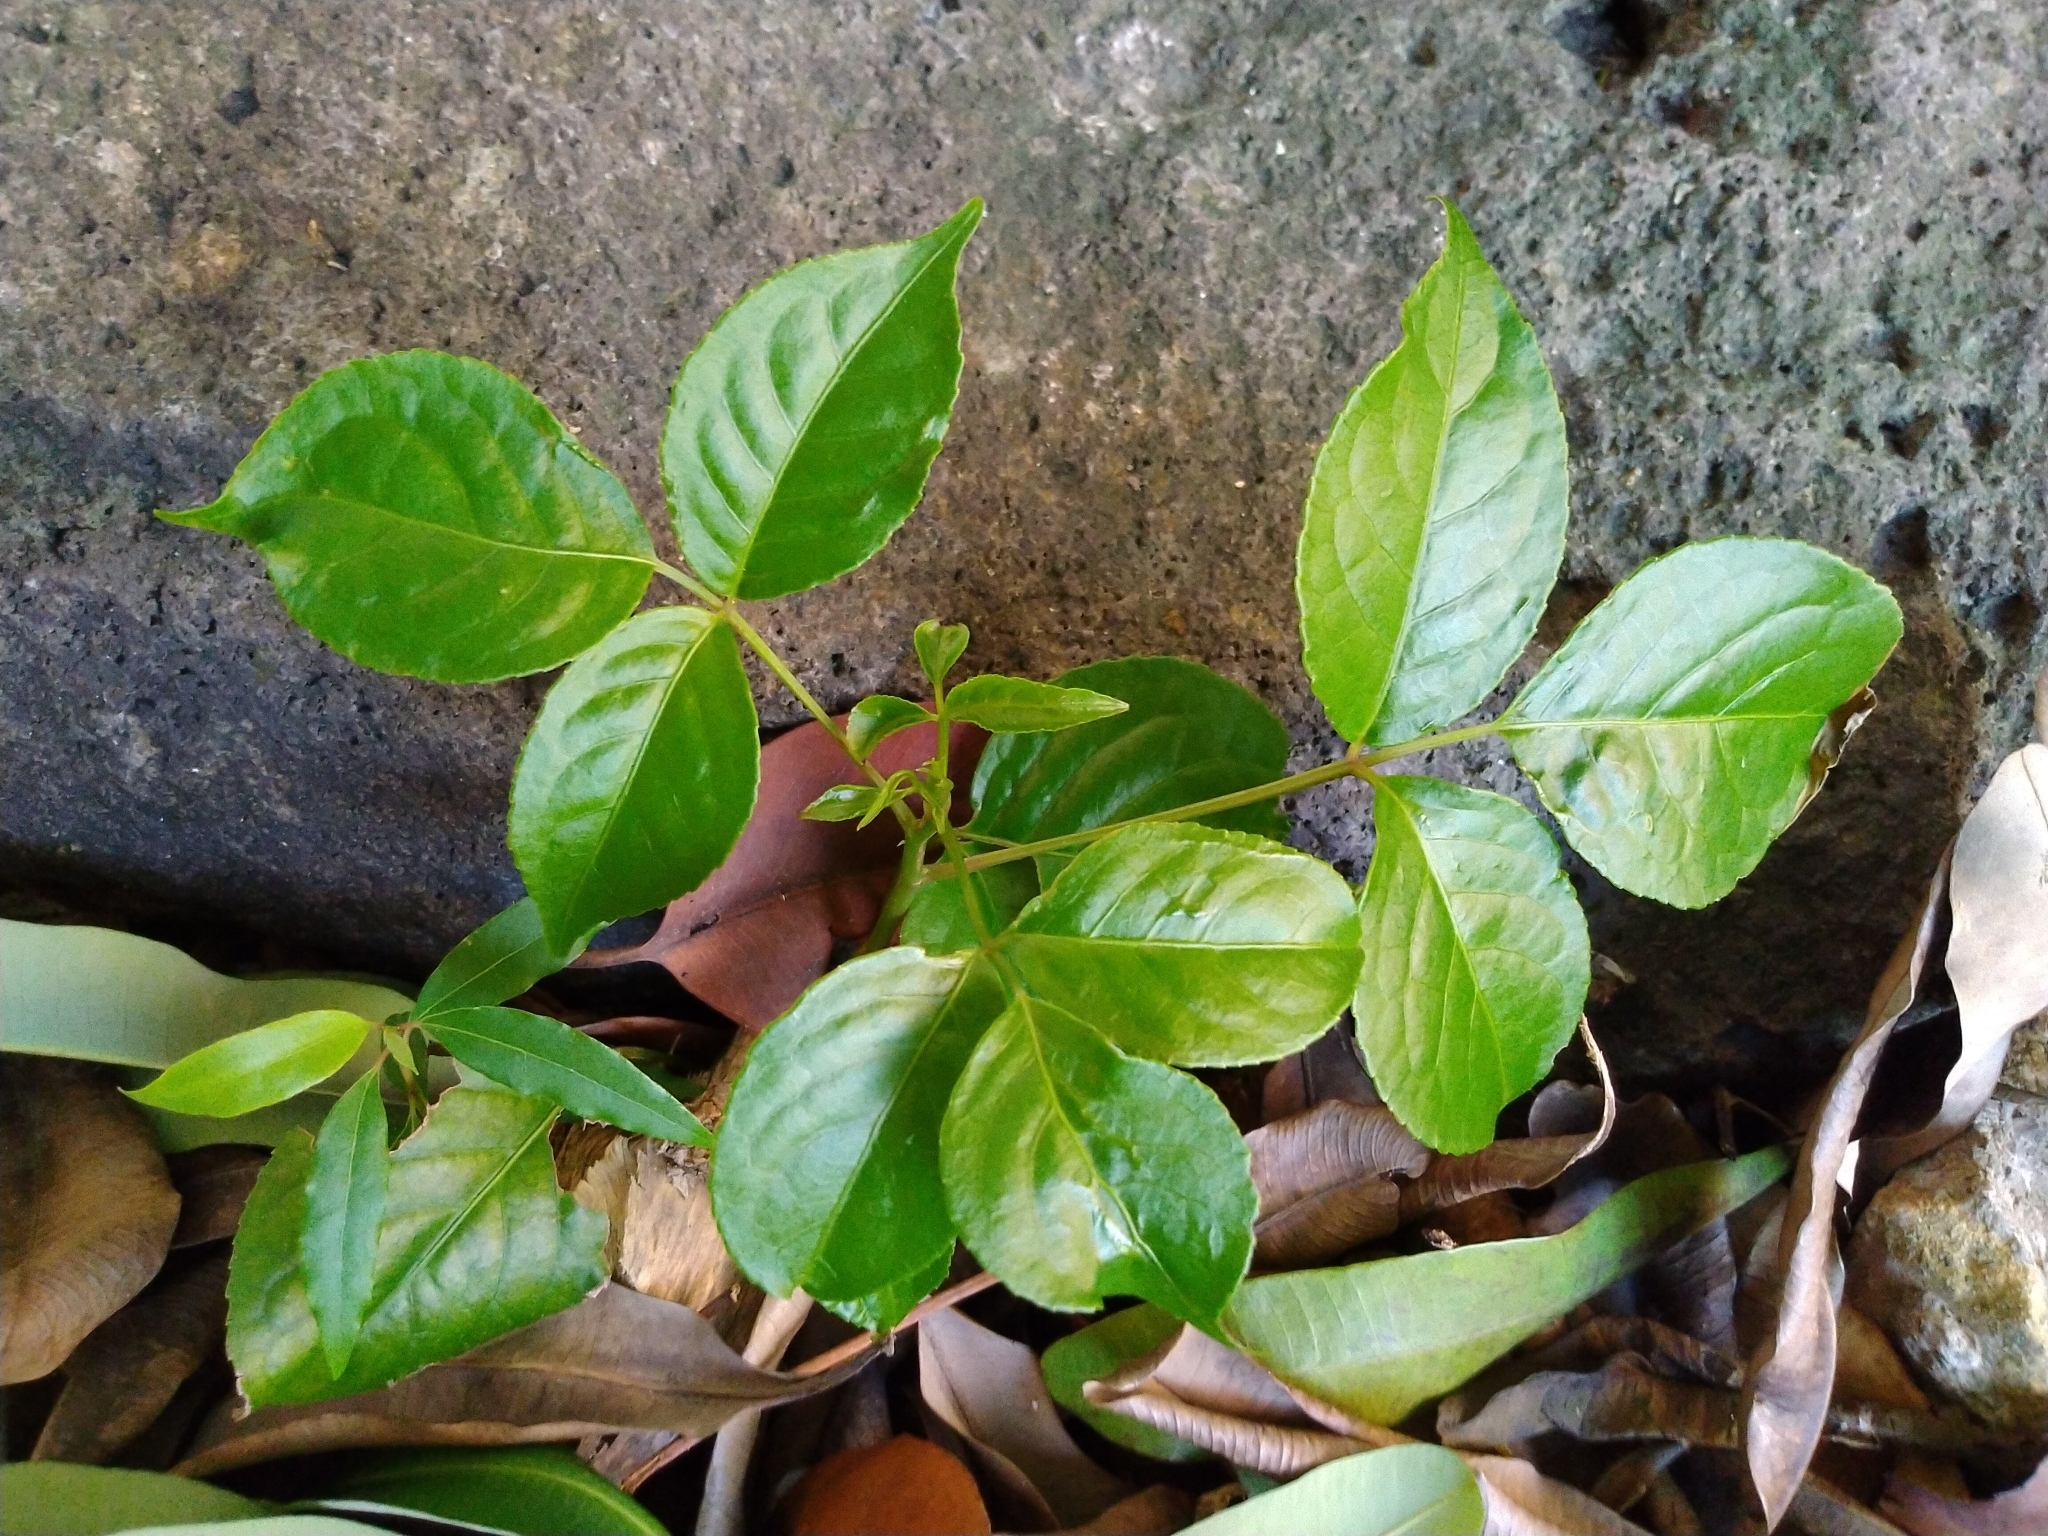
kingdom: Plantae
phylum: Tracheophyta
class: Magnoliopsida
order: Malpighiales
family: Phyllanthaceae
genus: Bischofia
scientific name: Bischofia javanica
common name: Javanese bishopwood
